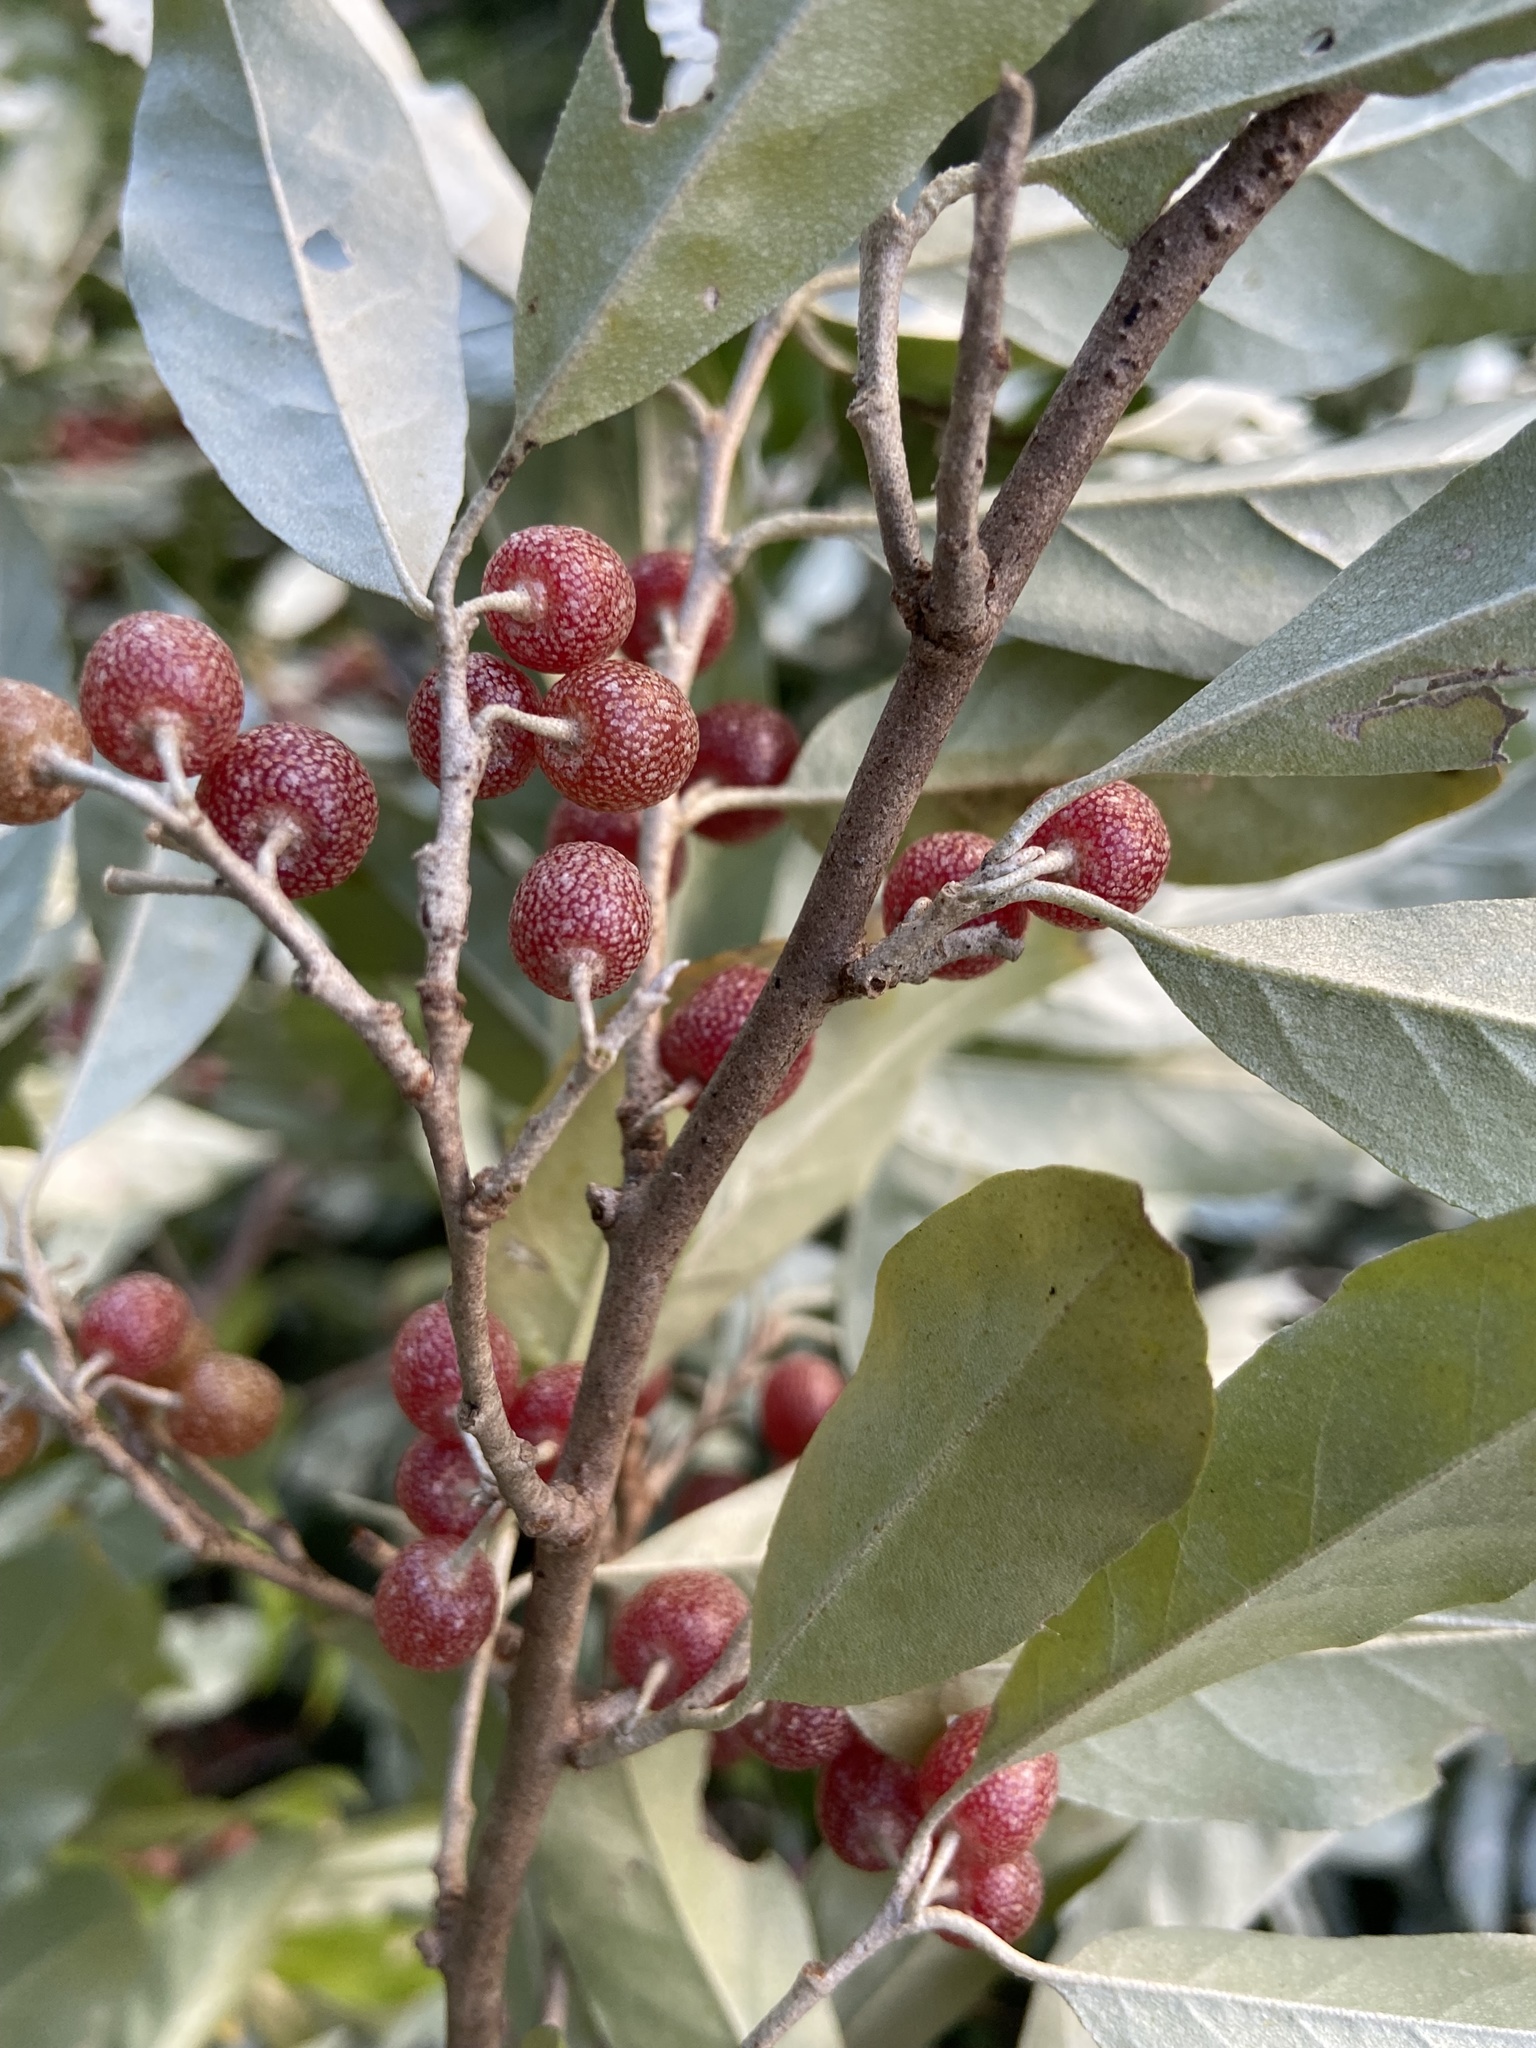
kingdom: Plantae
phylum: Tracheophyta
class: Magnoliopsida
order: Rosales
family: Elaeagnaceae
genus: Elaeagnus
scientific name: Elaeagnus umbellata
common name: Autumn olive
